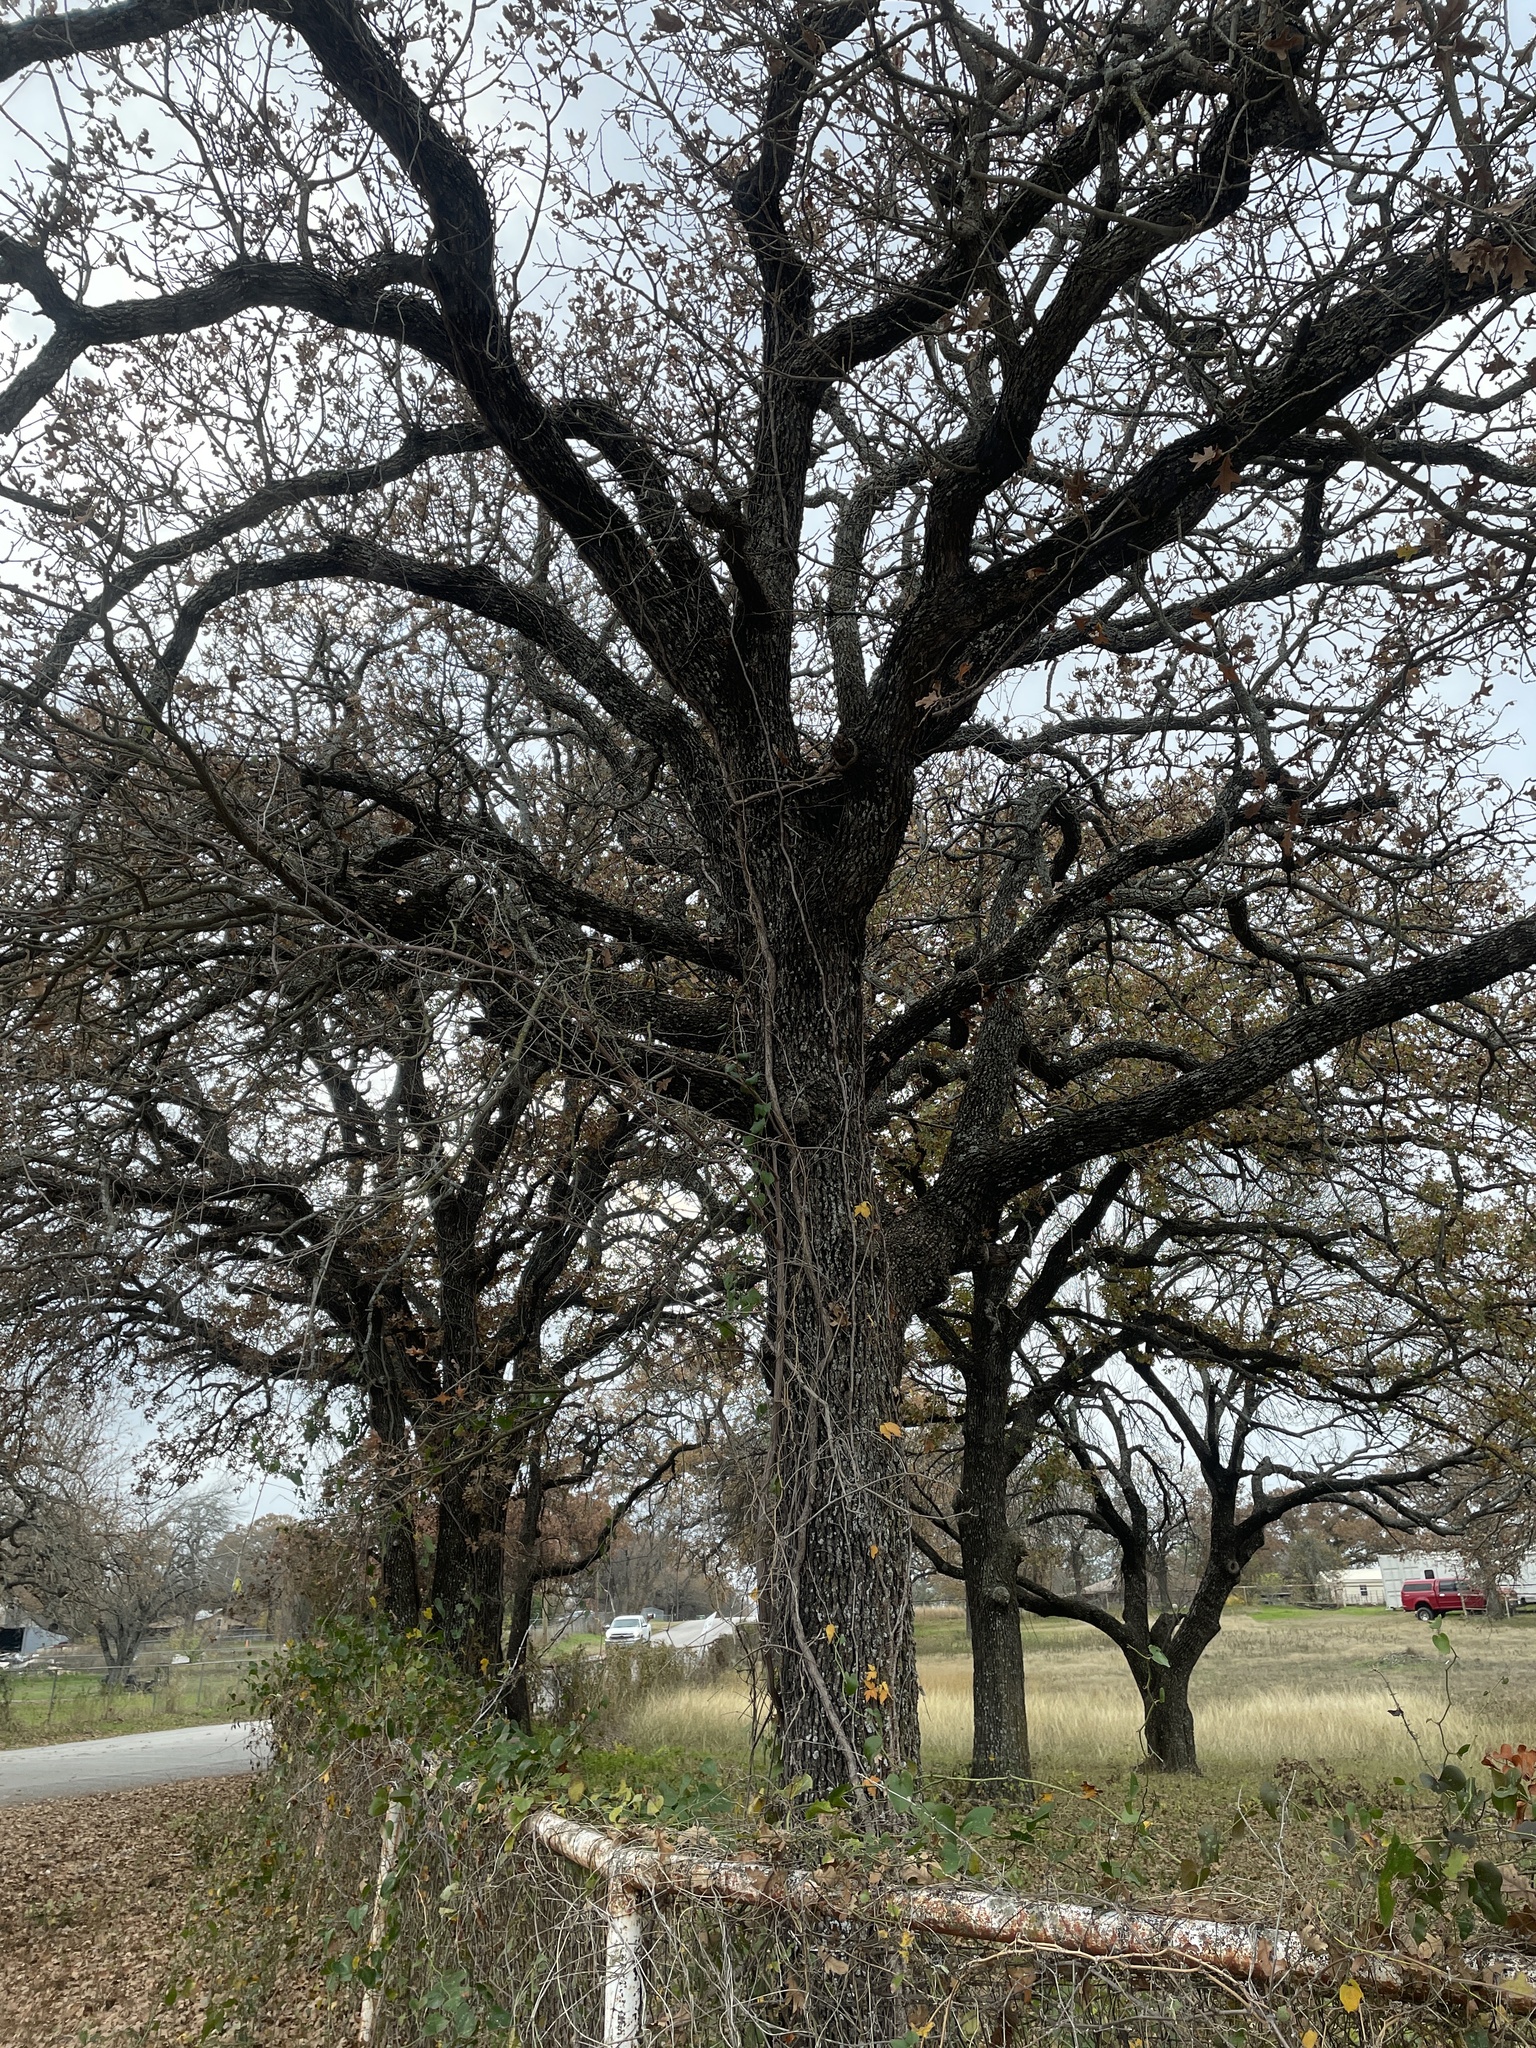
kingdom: Plantae
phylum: Tracheophyta
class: Magnoliopsida
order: Fagales
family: Fagaceae
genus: Quercus
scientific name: Quercus stellata
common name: Post oak
